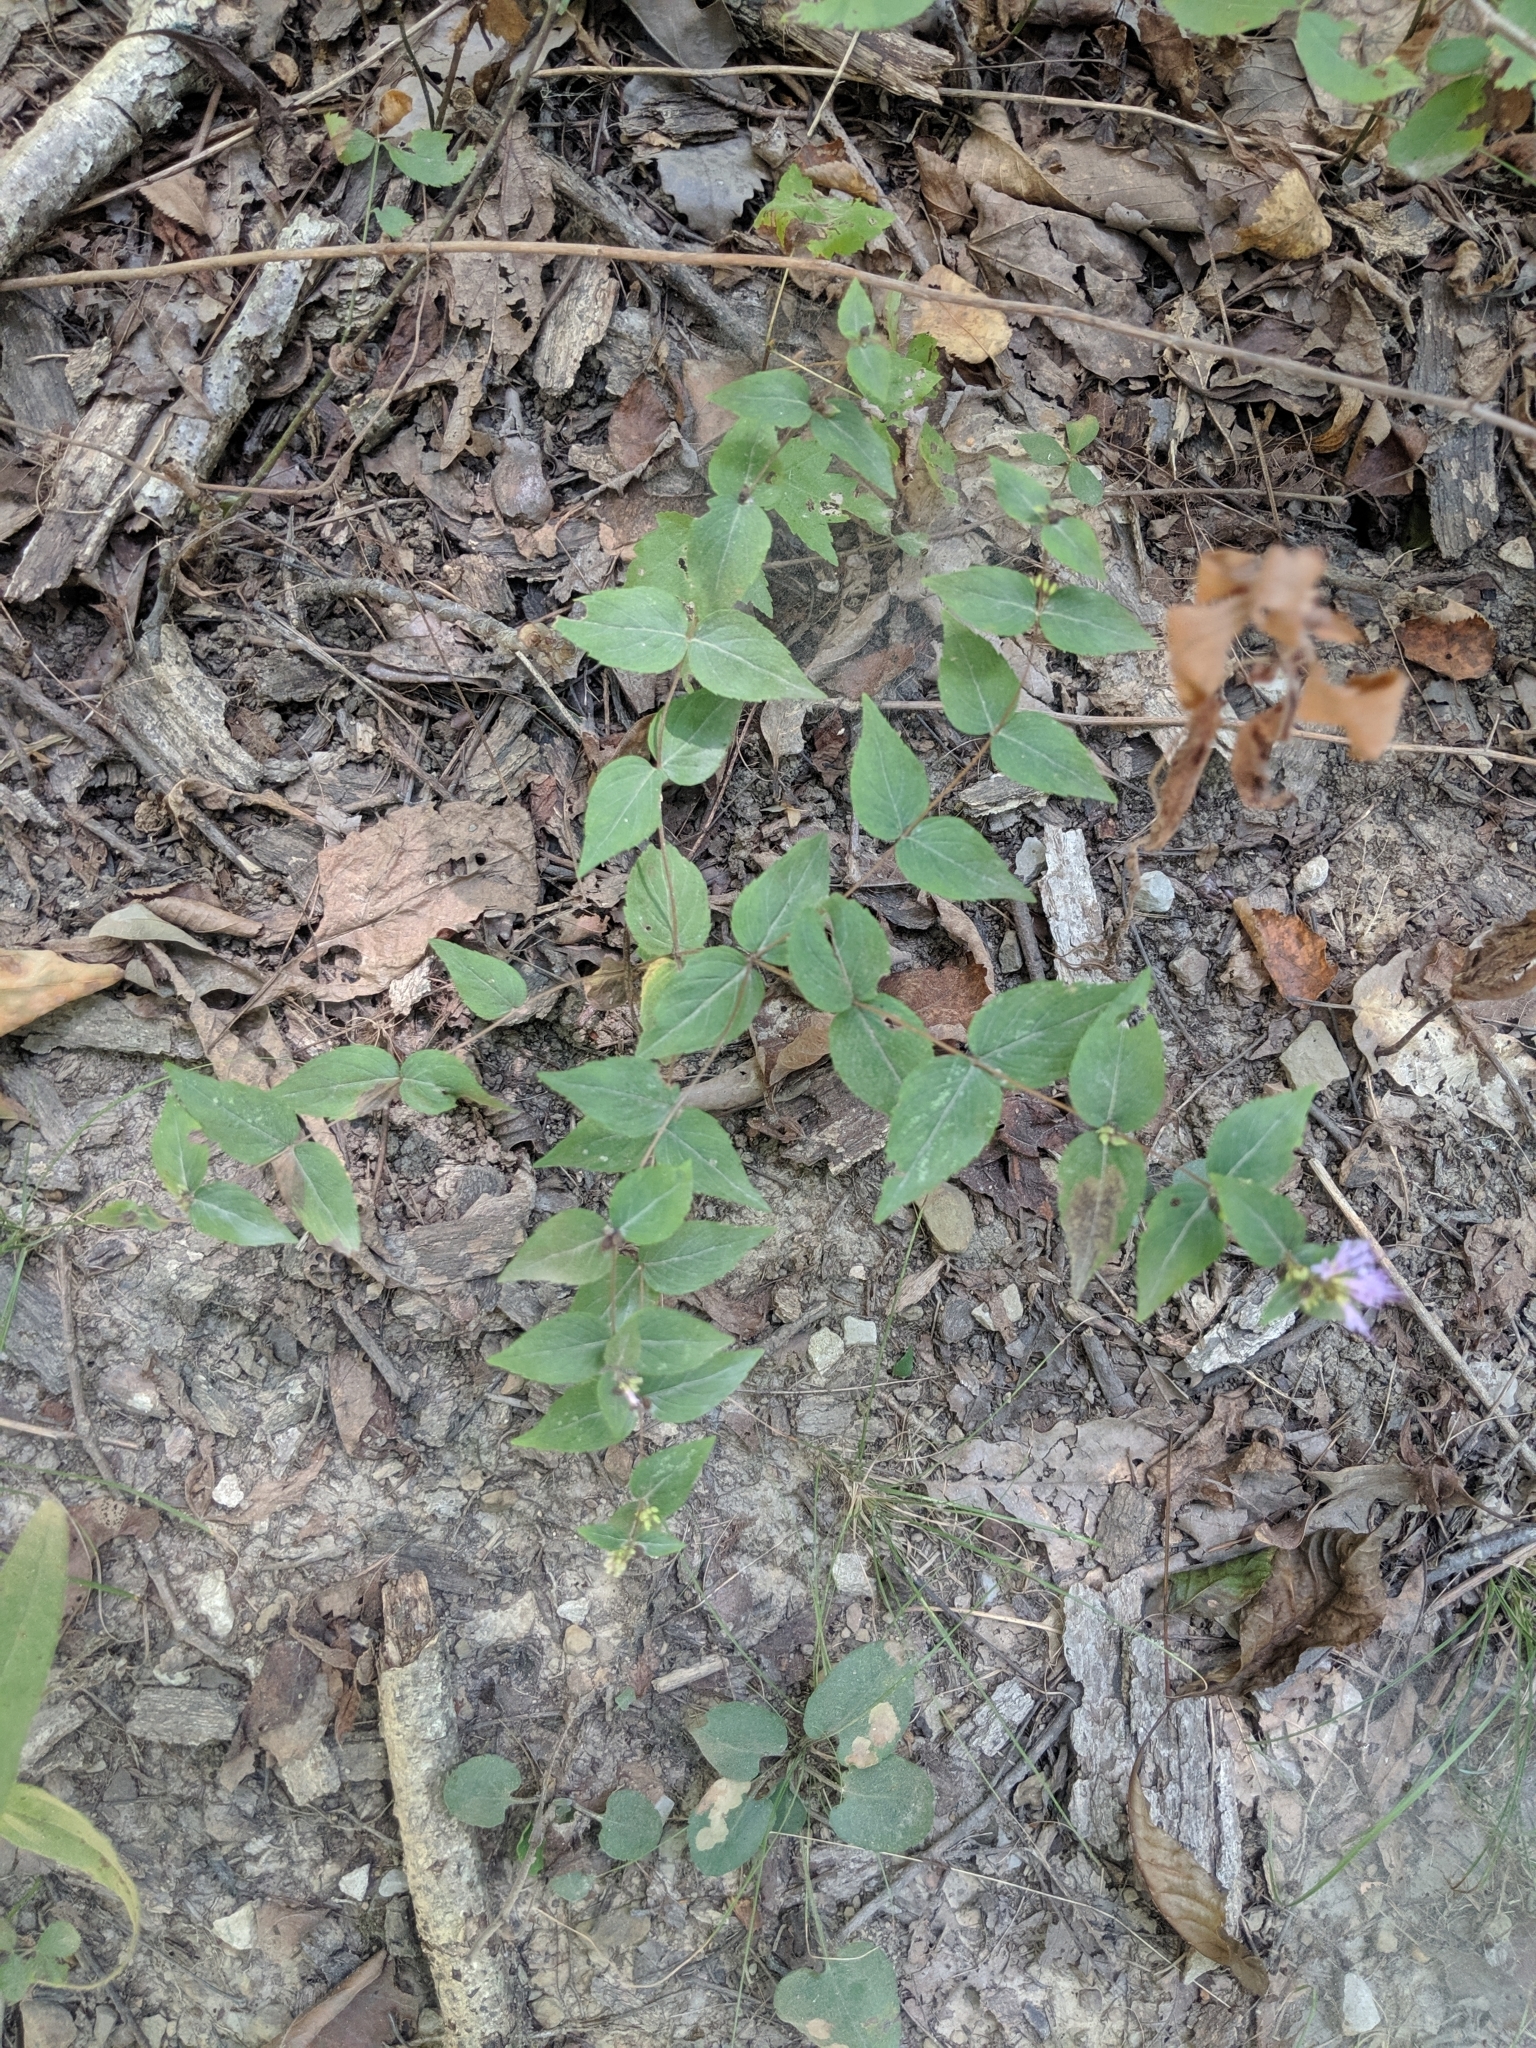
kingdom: Plantae
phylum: Tracheophyta
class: Magnoliopsida
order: Lamiales
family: Lamiaceae
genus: Cunila
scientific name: Cunila origanoides
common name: American dittany
